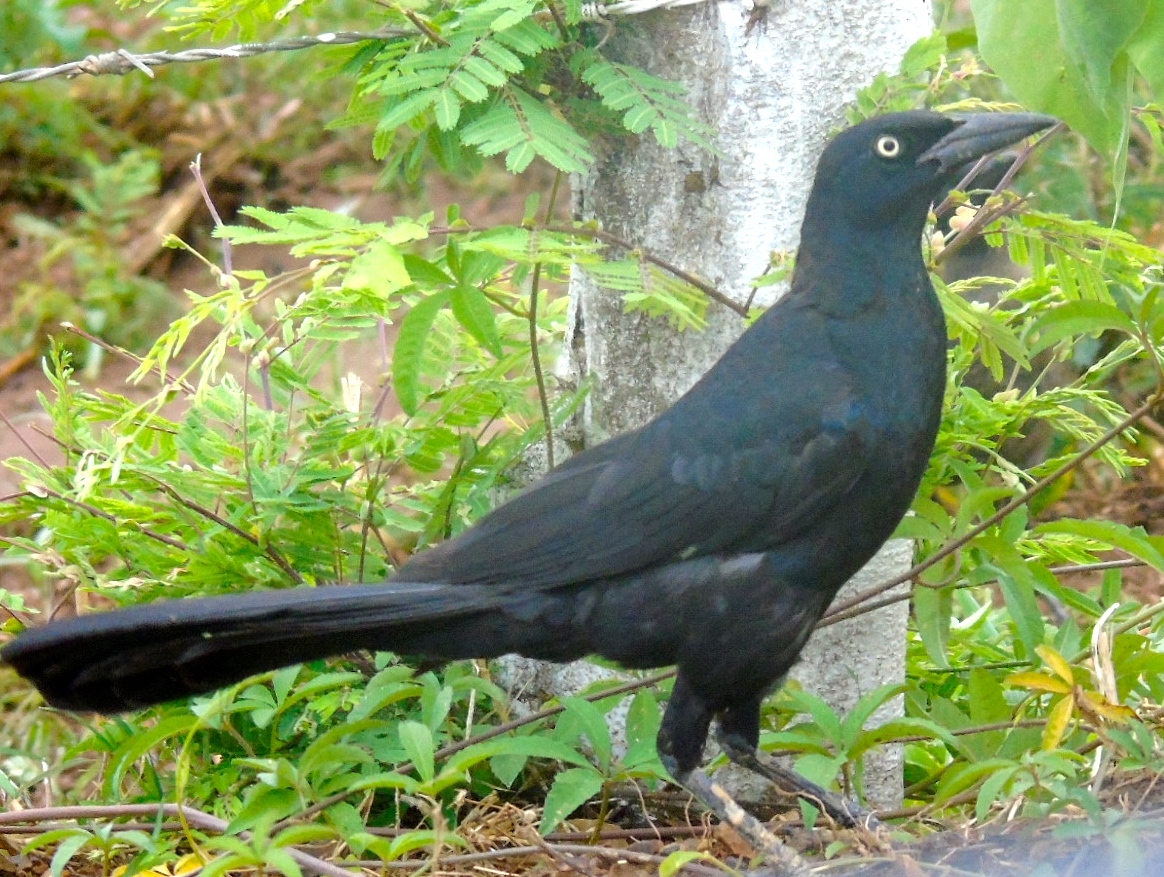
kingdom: Animalia
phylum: Chordata
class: Aves
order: Passeriformes
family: Icteridae
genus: Quiscalus
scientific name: Quiscalus mexicanus
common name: Great-tailed grackle
